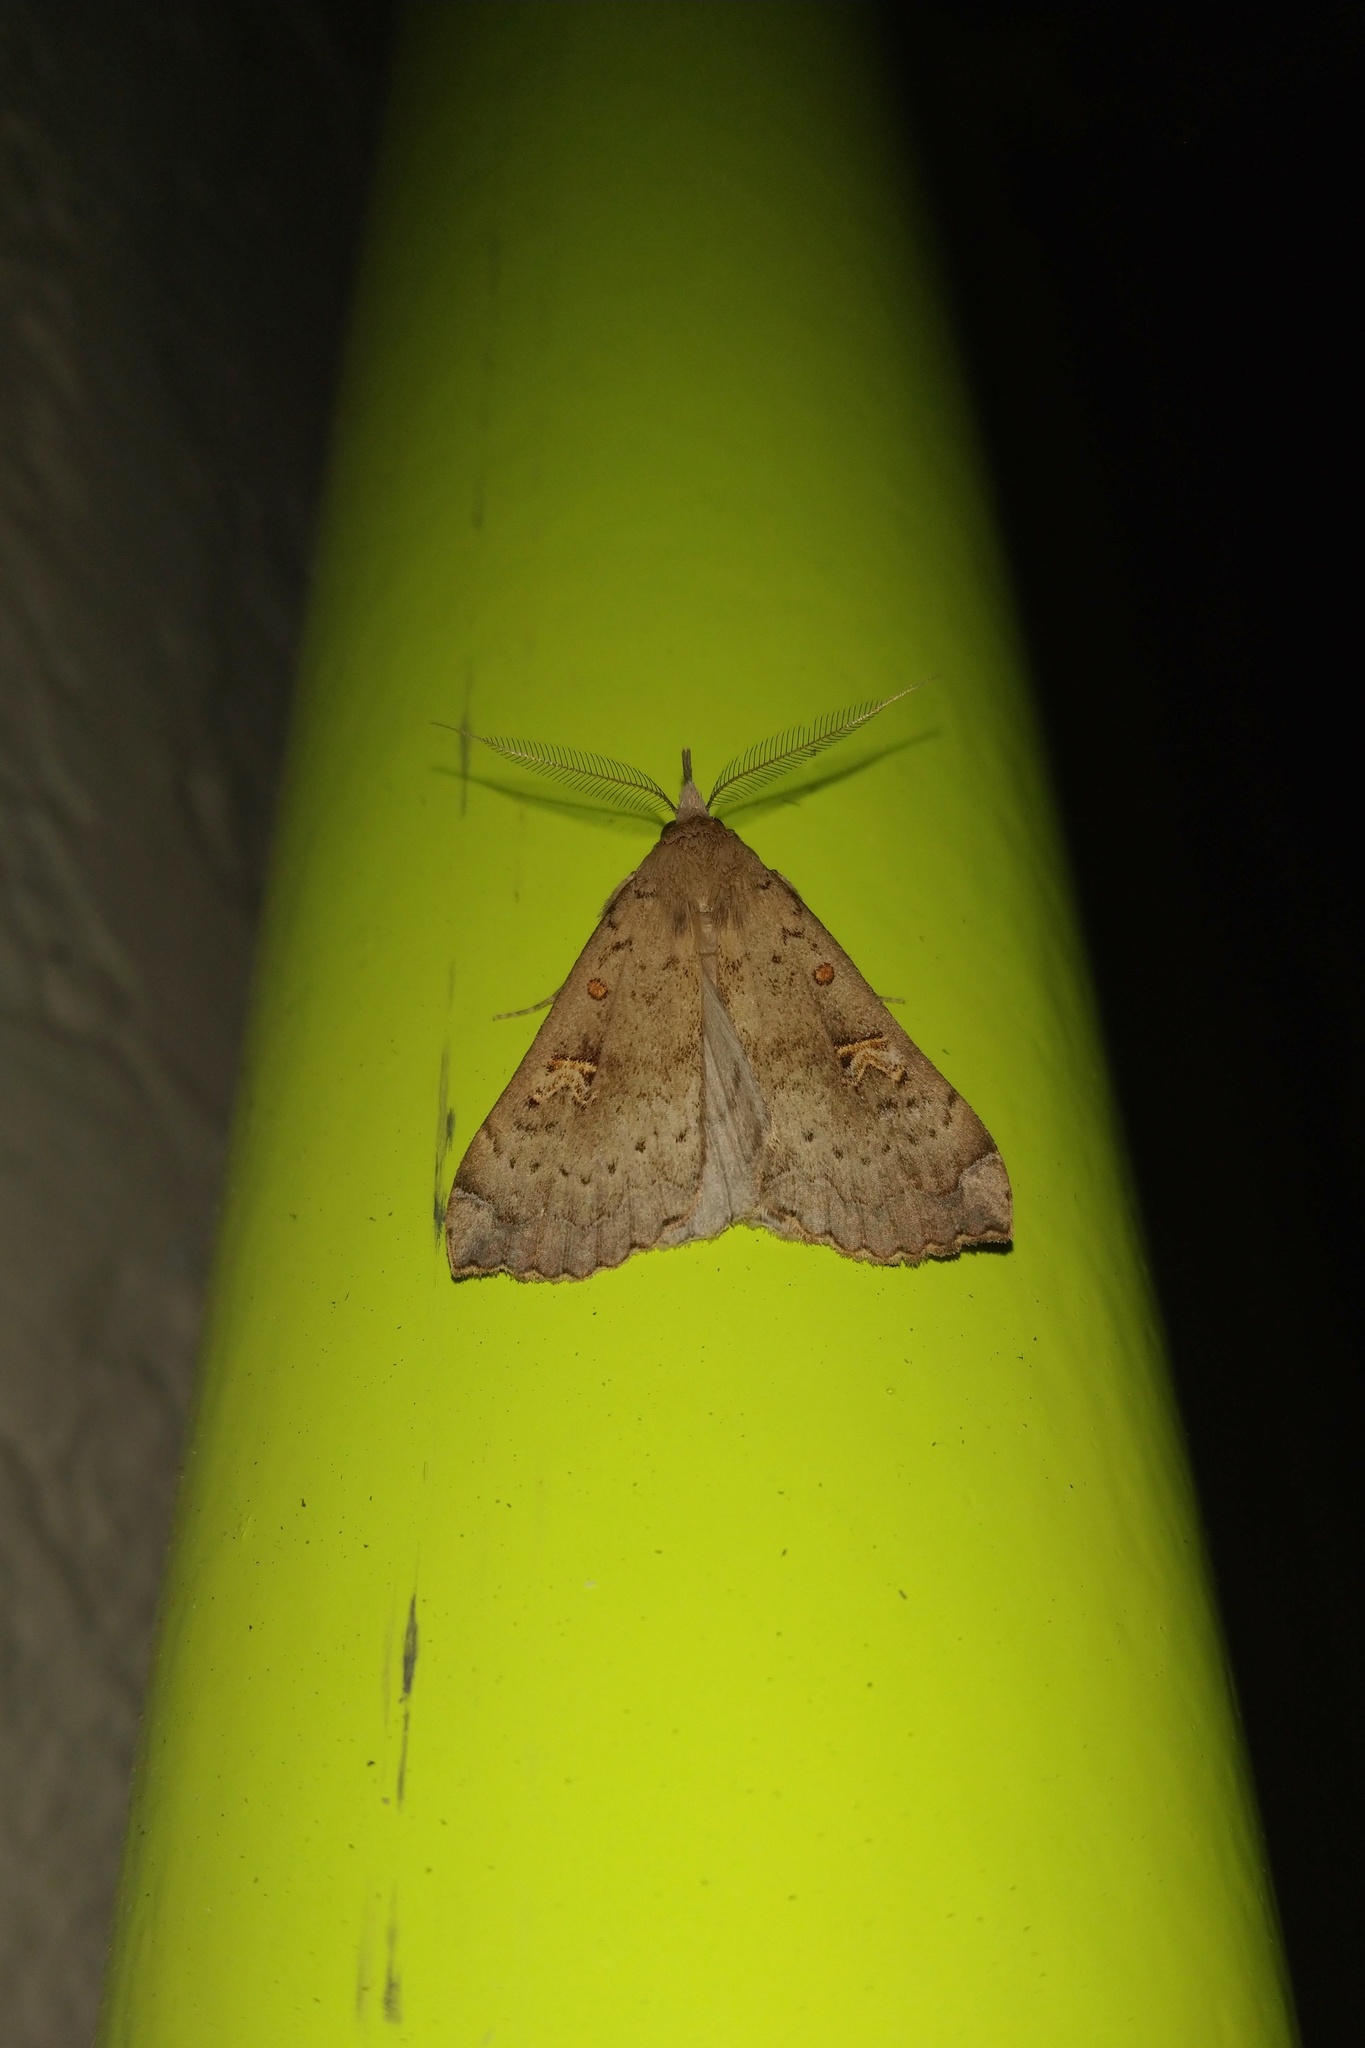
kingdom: Animalia
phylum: Arthropoda
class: Insecta
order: Lepidoptera
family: Erebidae
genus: Rhapsa
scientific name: Rhapsa scotosialis
